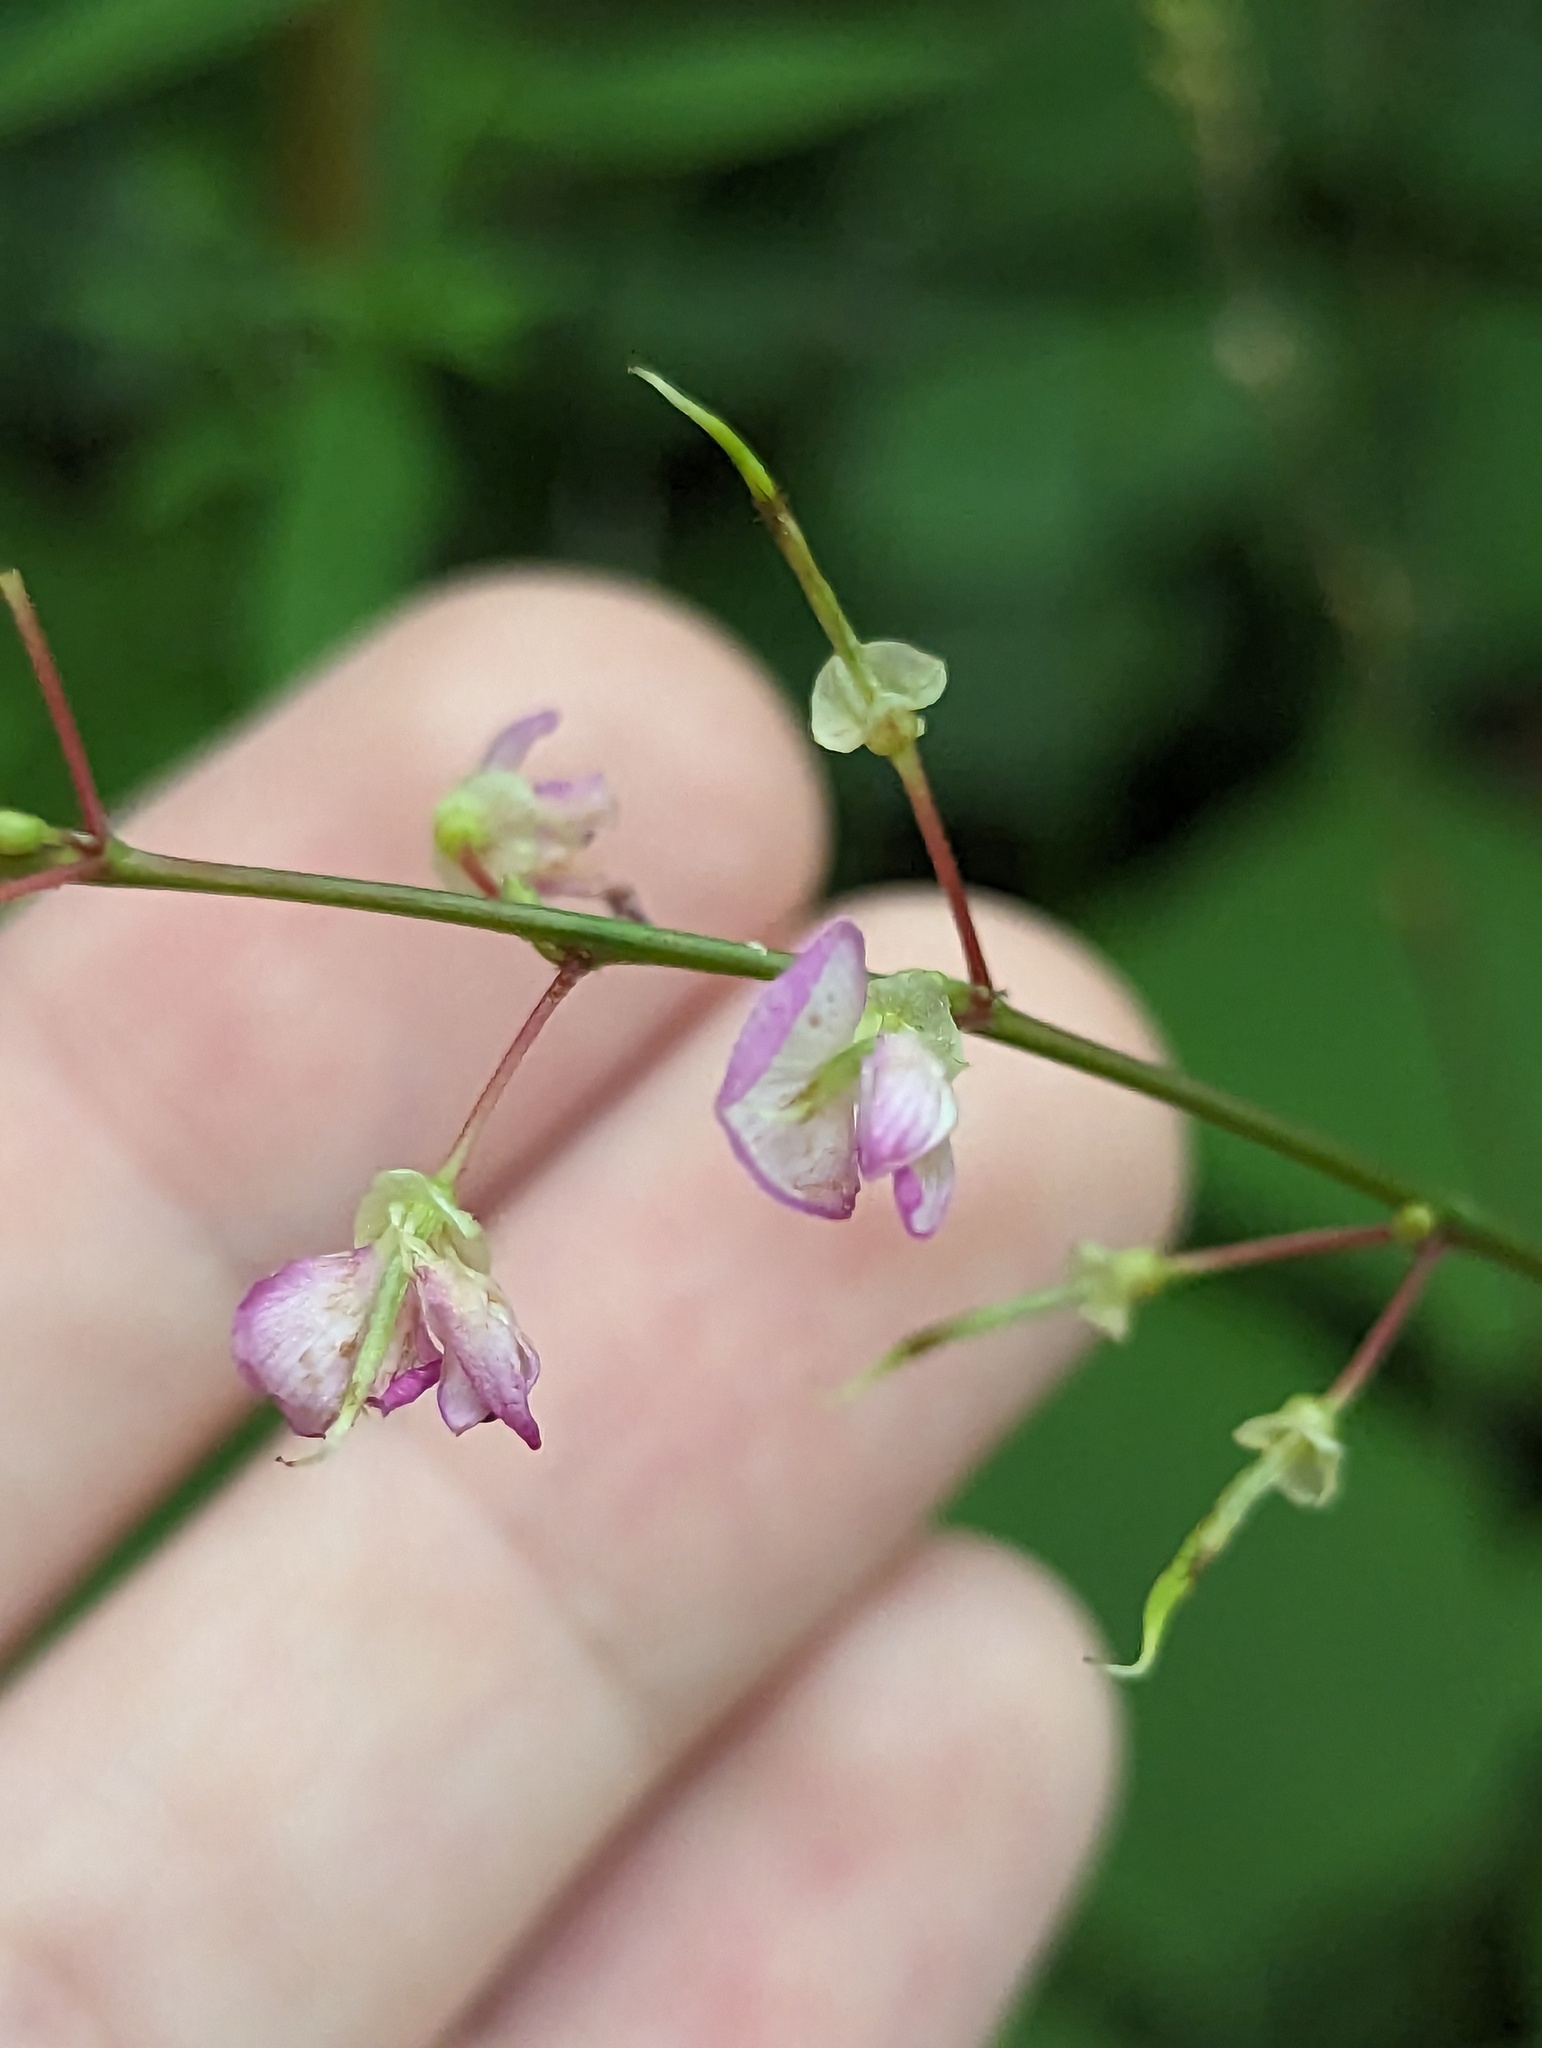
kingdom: Plantae
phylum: Tracheophyta
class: Magnoliopsida
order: Fabales
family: Fabaceae
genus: Hylodesmum
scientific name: Hylodesmum glutinosum
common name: Clustered-leaved tick-trefoil
